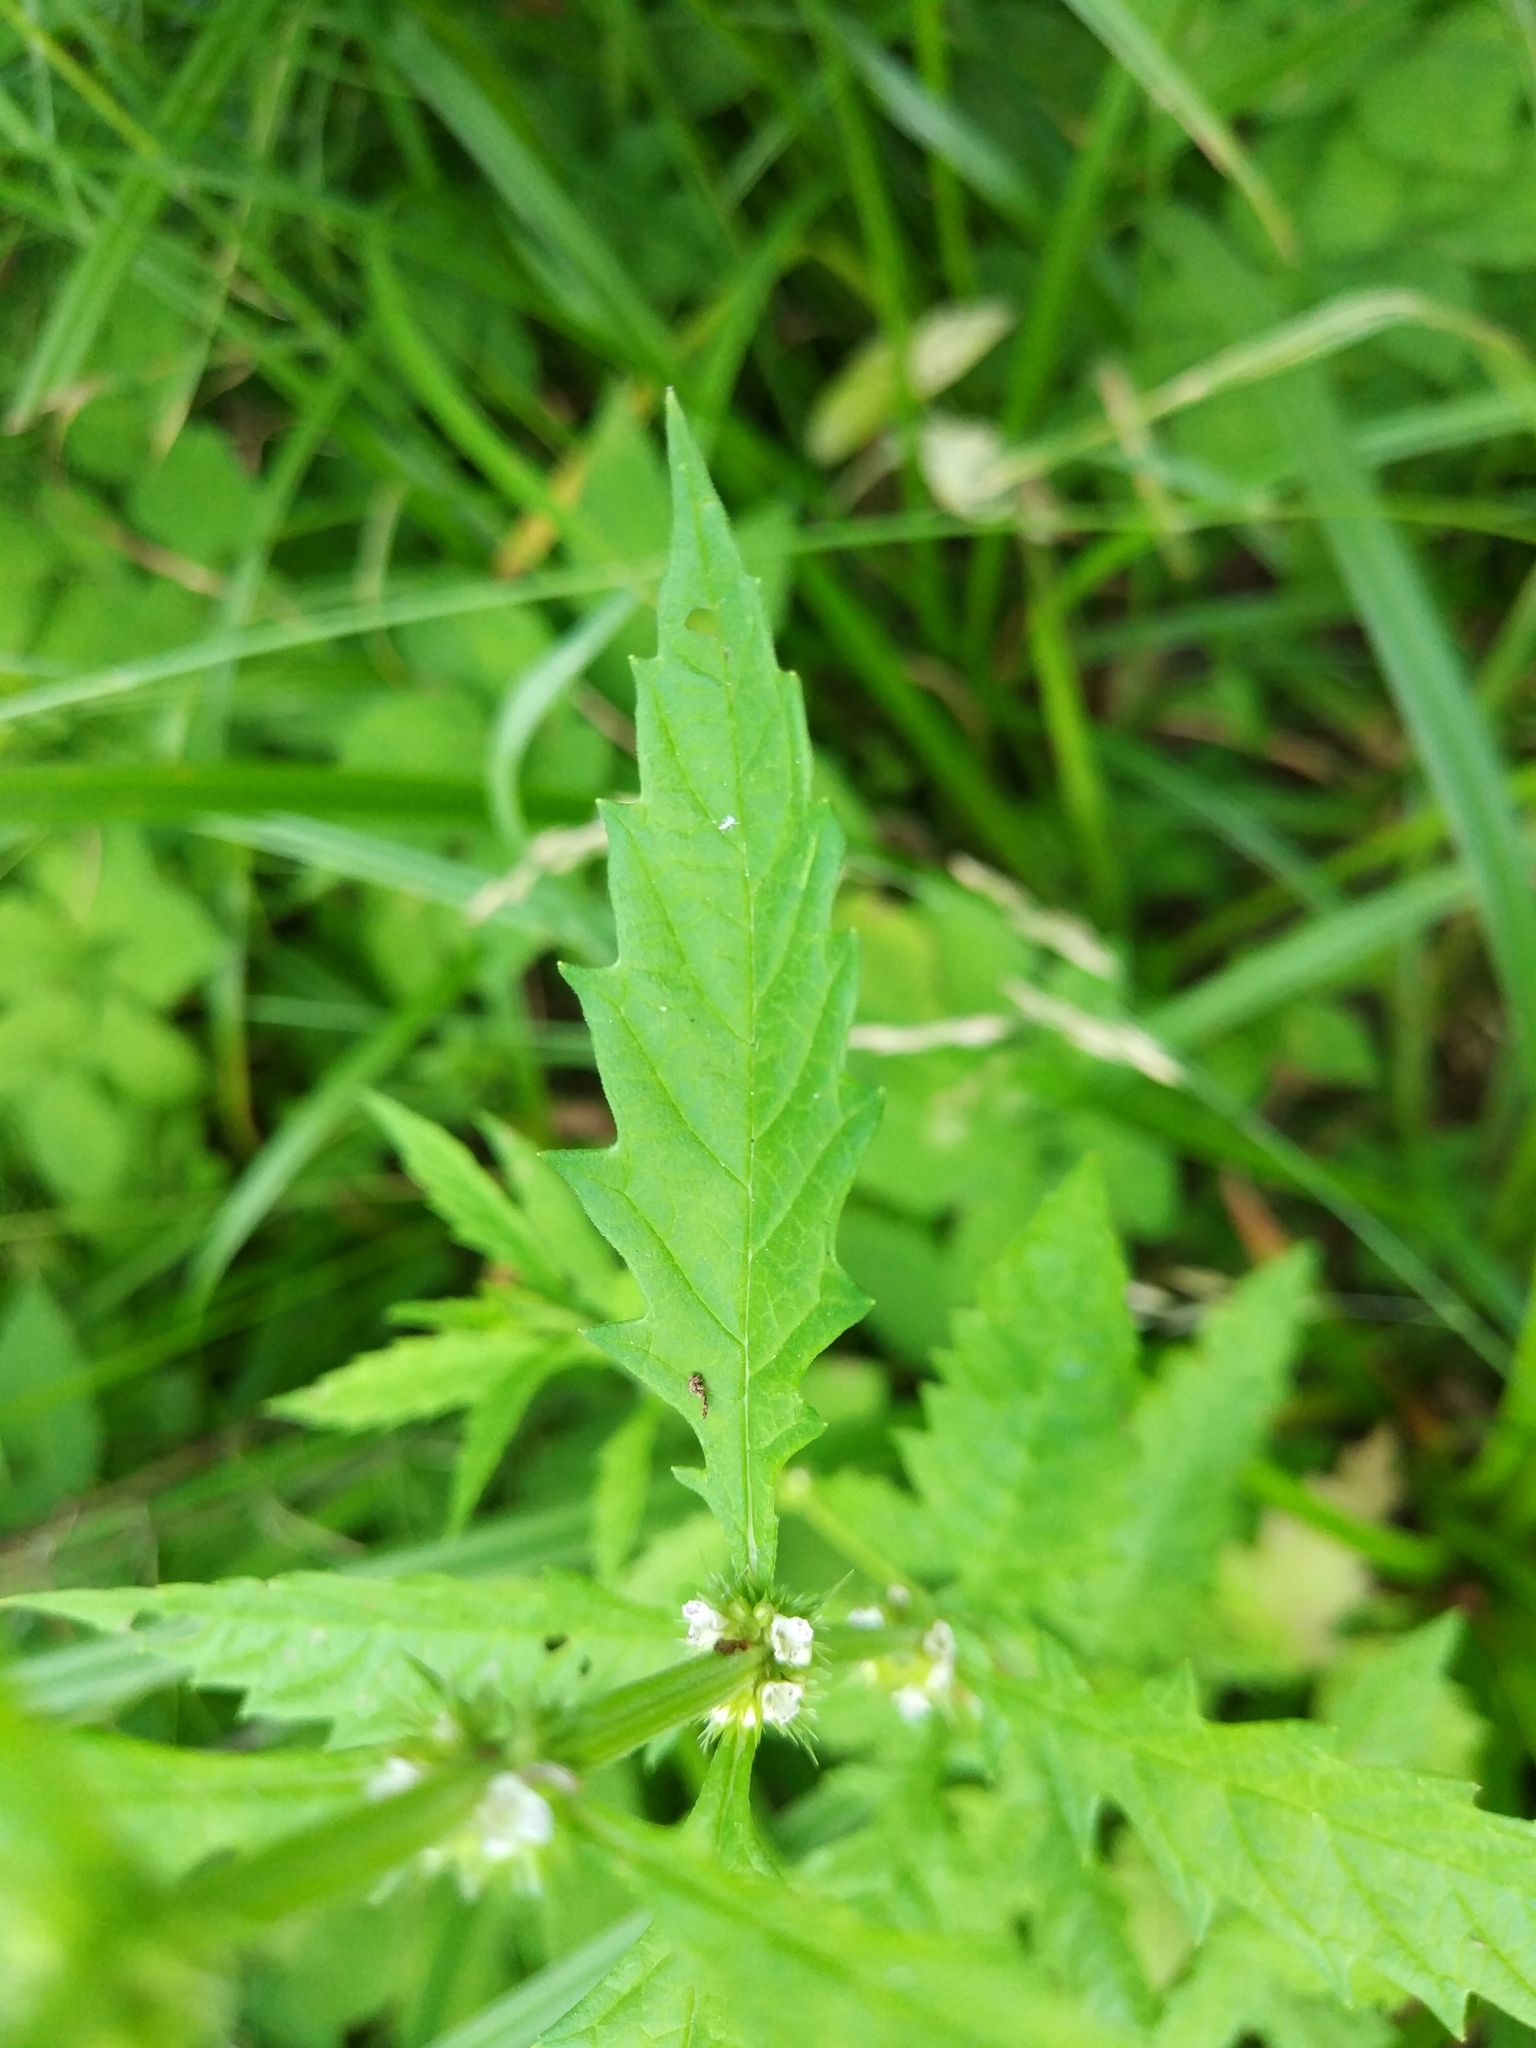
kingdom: Plantae
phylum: Tracheophyta
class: Magnoliopsida
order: Lamiales
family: Lamiaceae
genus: Lycopus
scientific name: Lycopus europaeus
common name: European bugleweed
